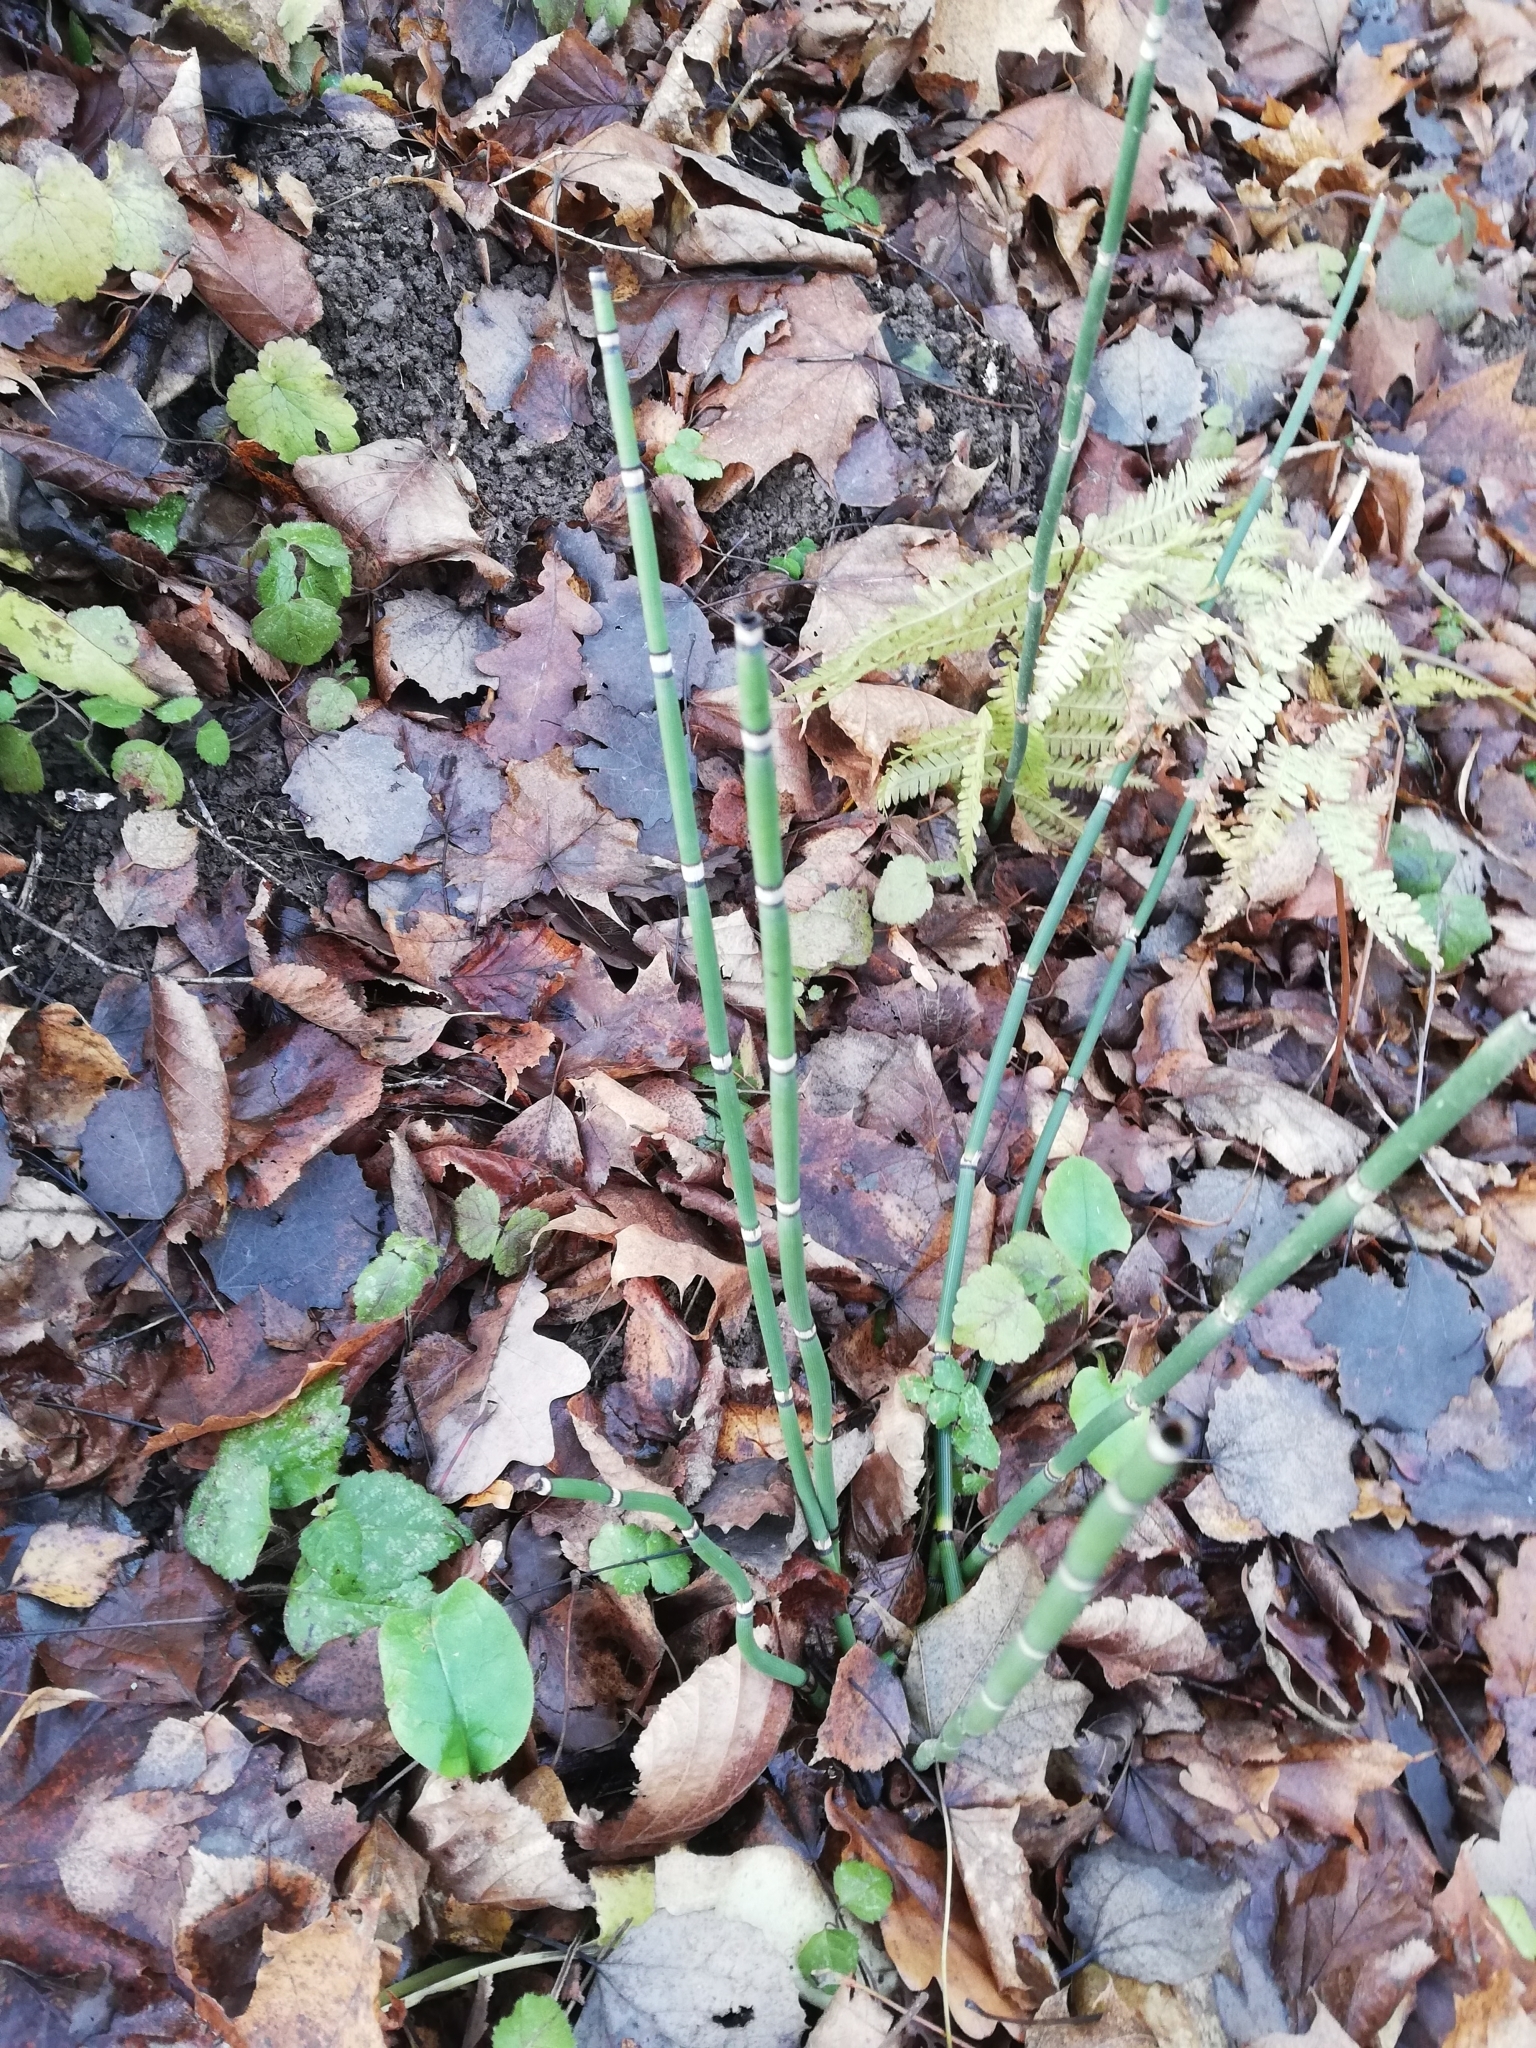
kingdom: Plantae
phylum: Tracheophyta
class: Polypodiopsida
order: Equisetales
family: Equisetaceae
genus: Equisetum
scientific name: Equisetum hyemale
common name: Rough horsetail
